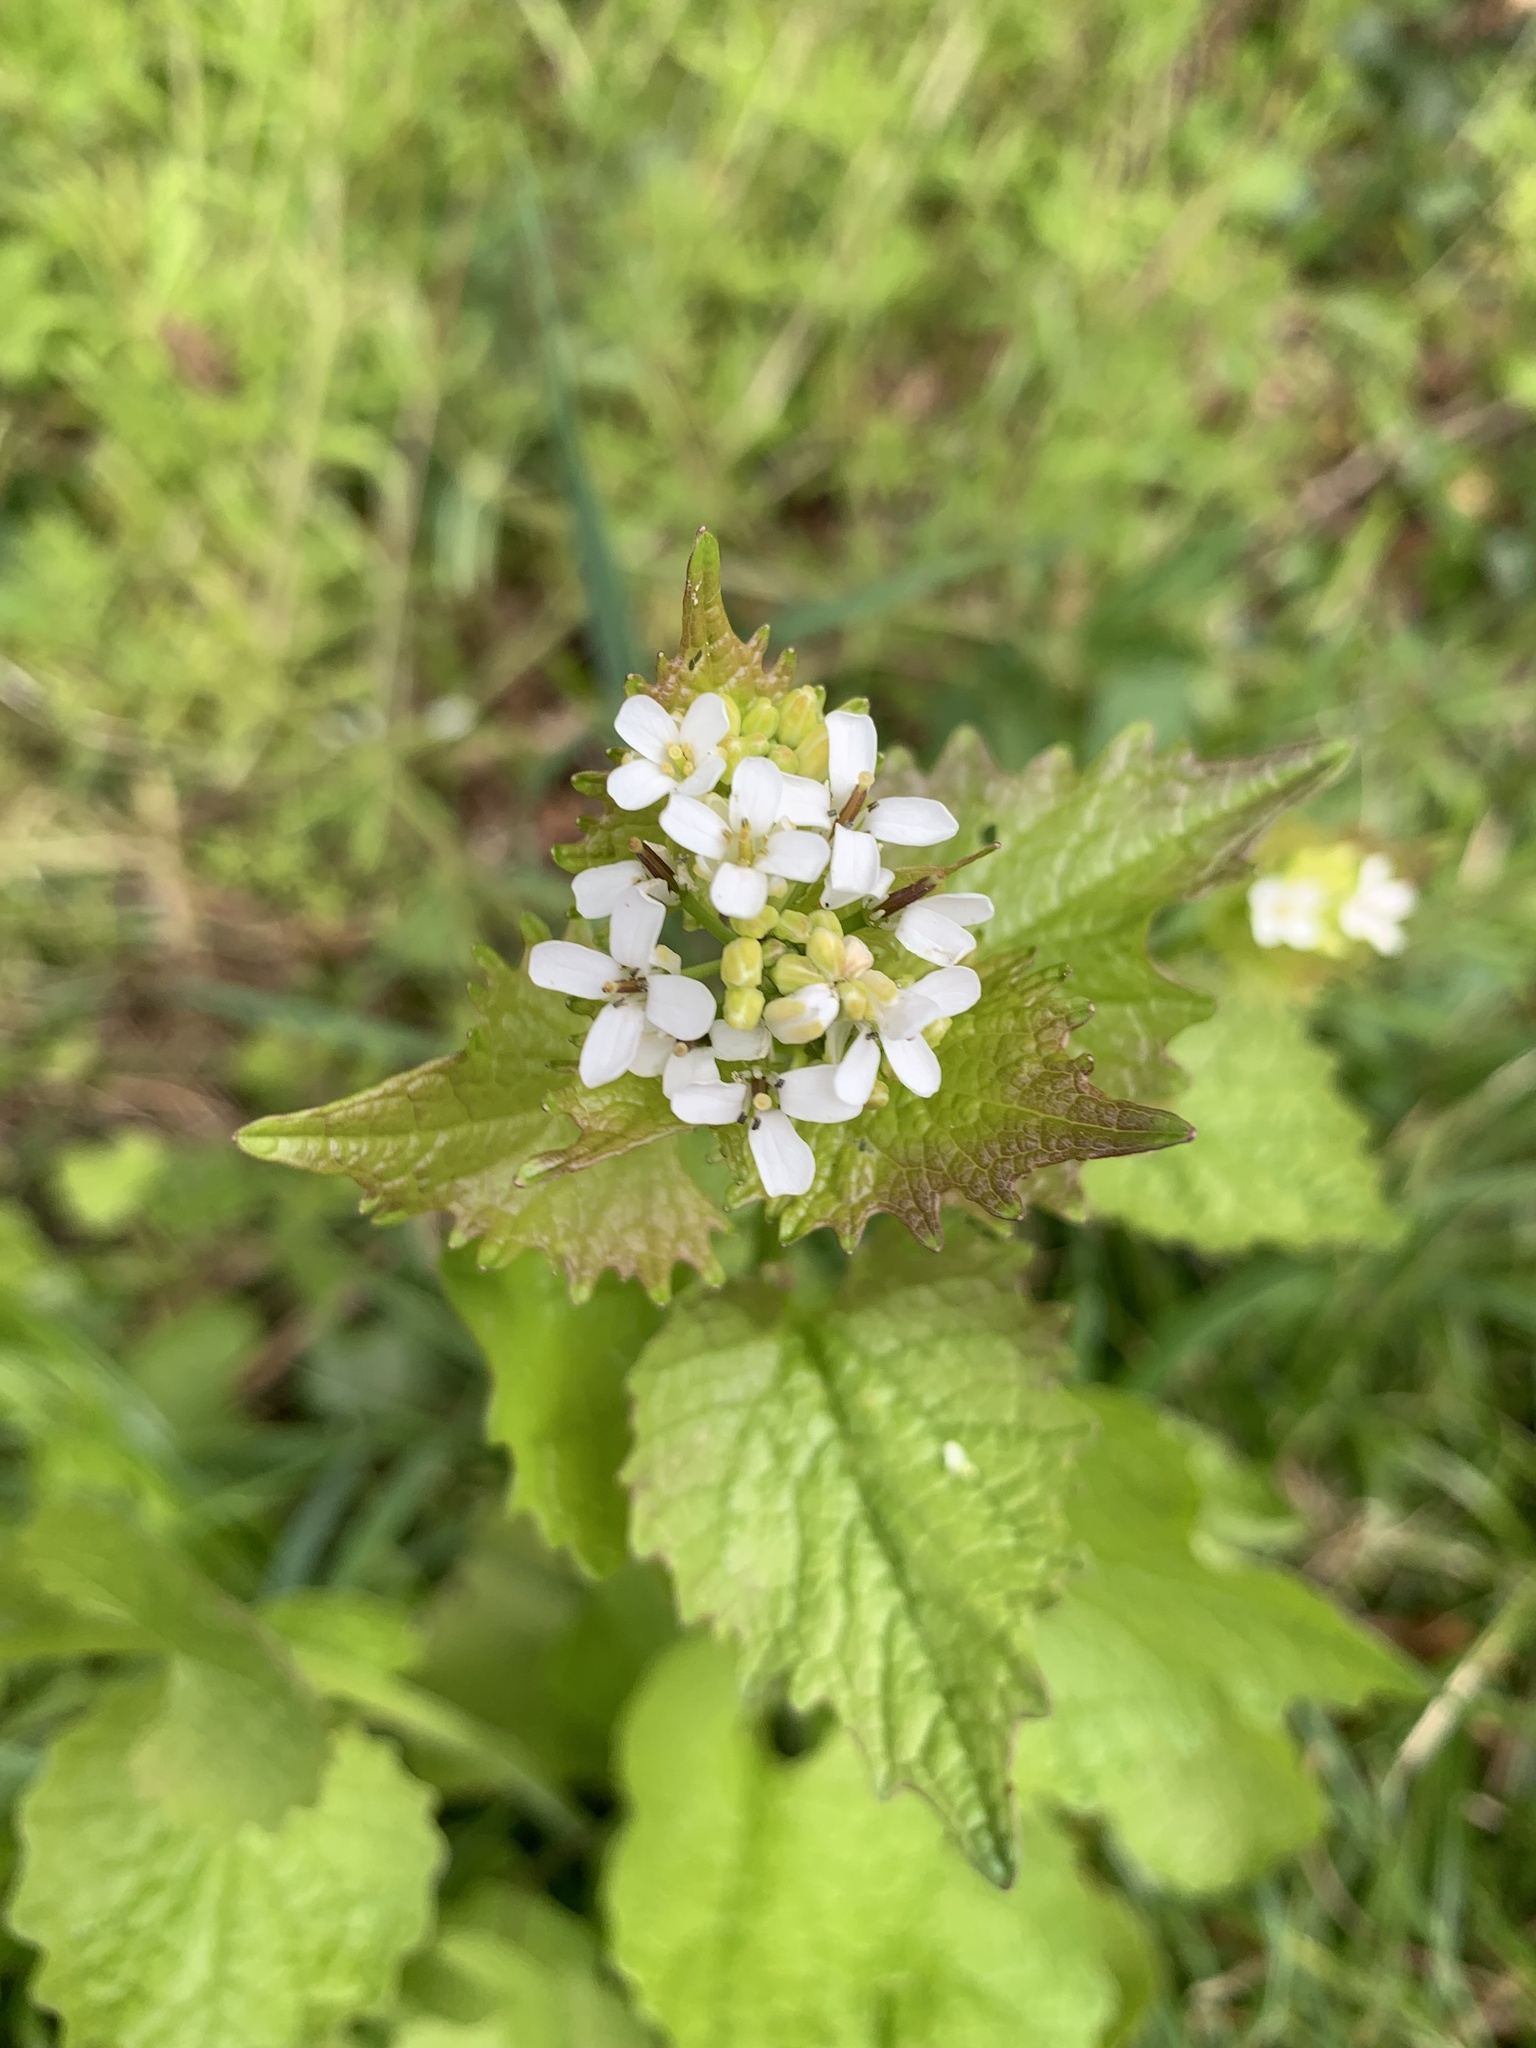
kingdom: Plantae
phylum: Tracheophyta
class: Magnoliopsida
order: Brassicales
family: Brassicaceae
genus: Alliaria
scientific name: Alliaria petiolata
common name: Garlic mustard
